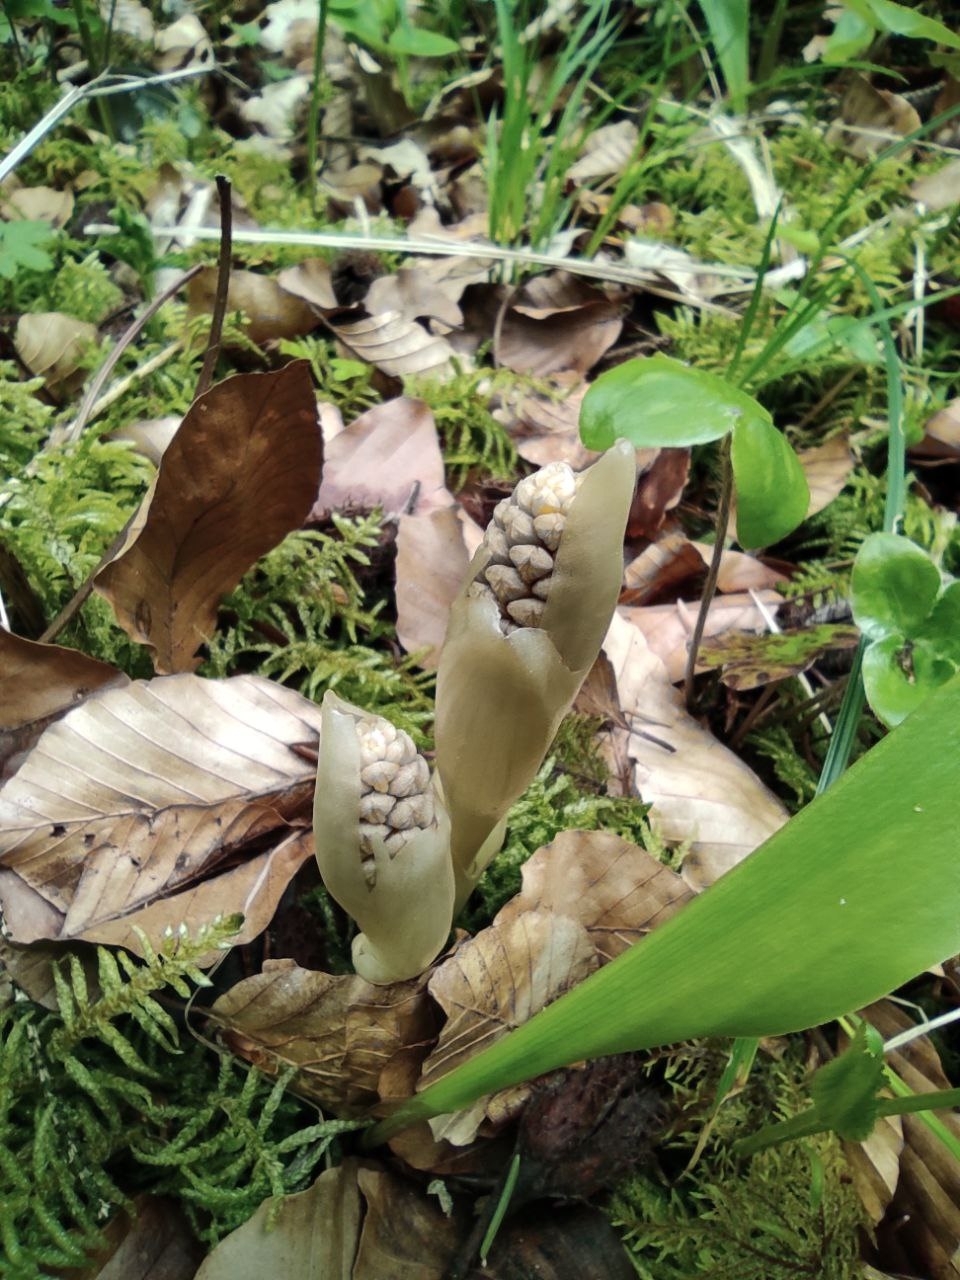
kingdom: Plantae
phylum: Tracheophyta
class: Liliopsida
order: Asparagales
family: Orchidaceae
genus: Neottia
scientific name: Neottia nidus-avis
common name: Bird's-nest orchid
